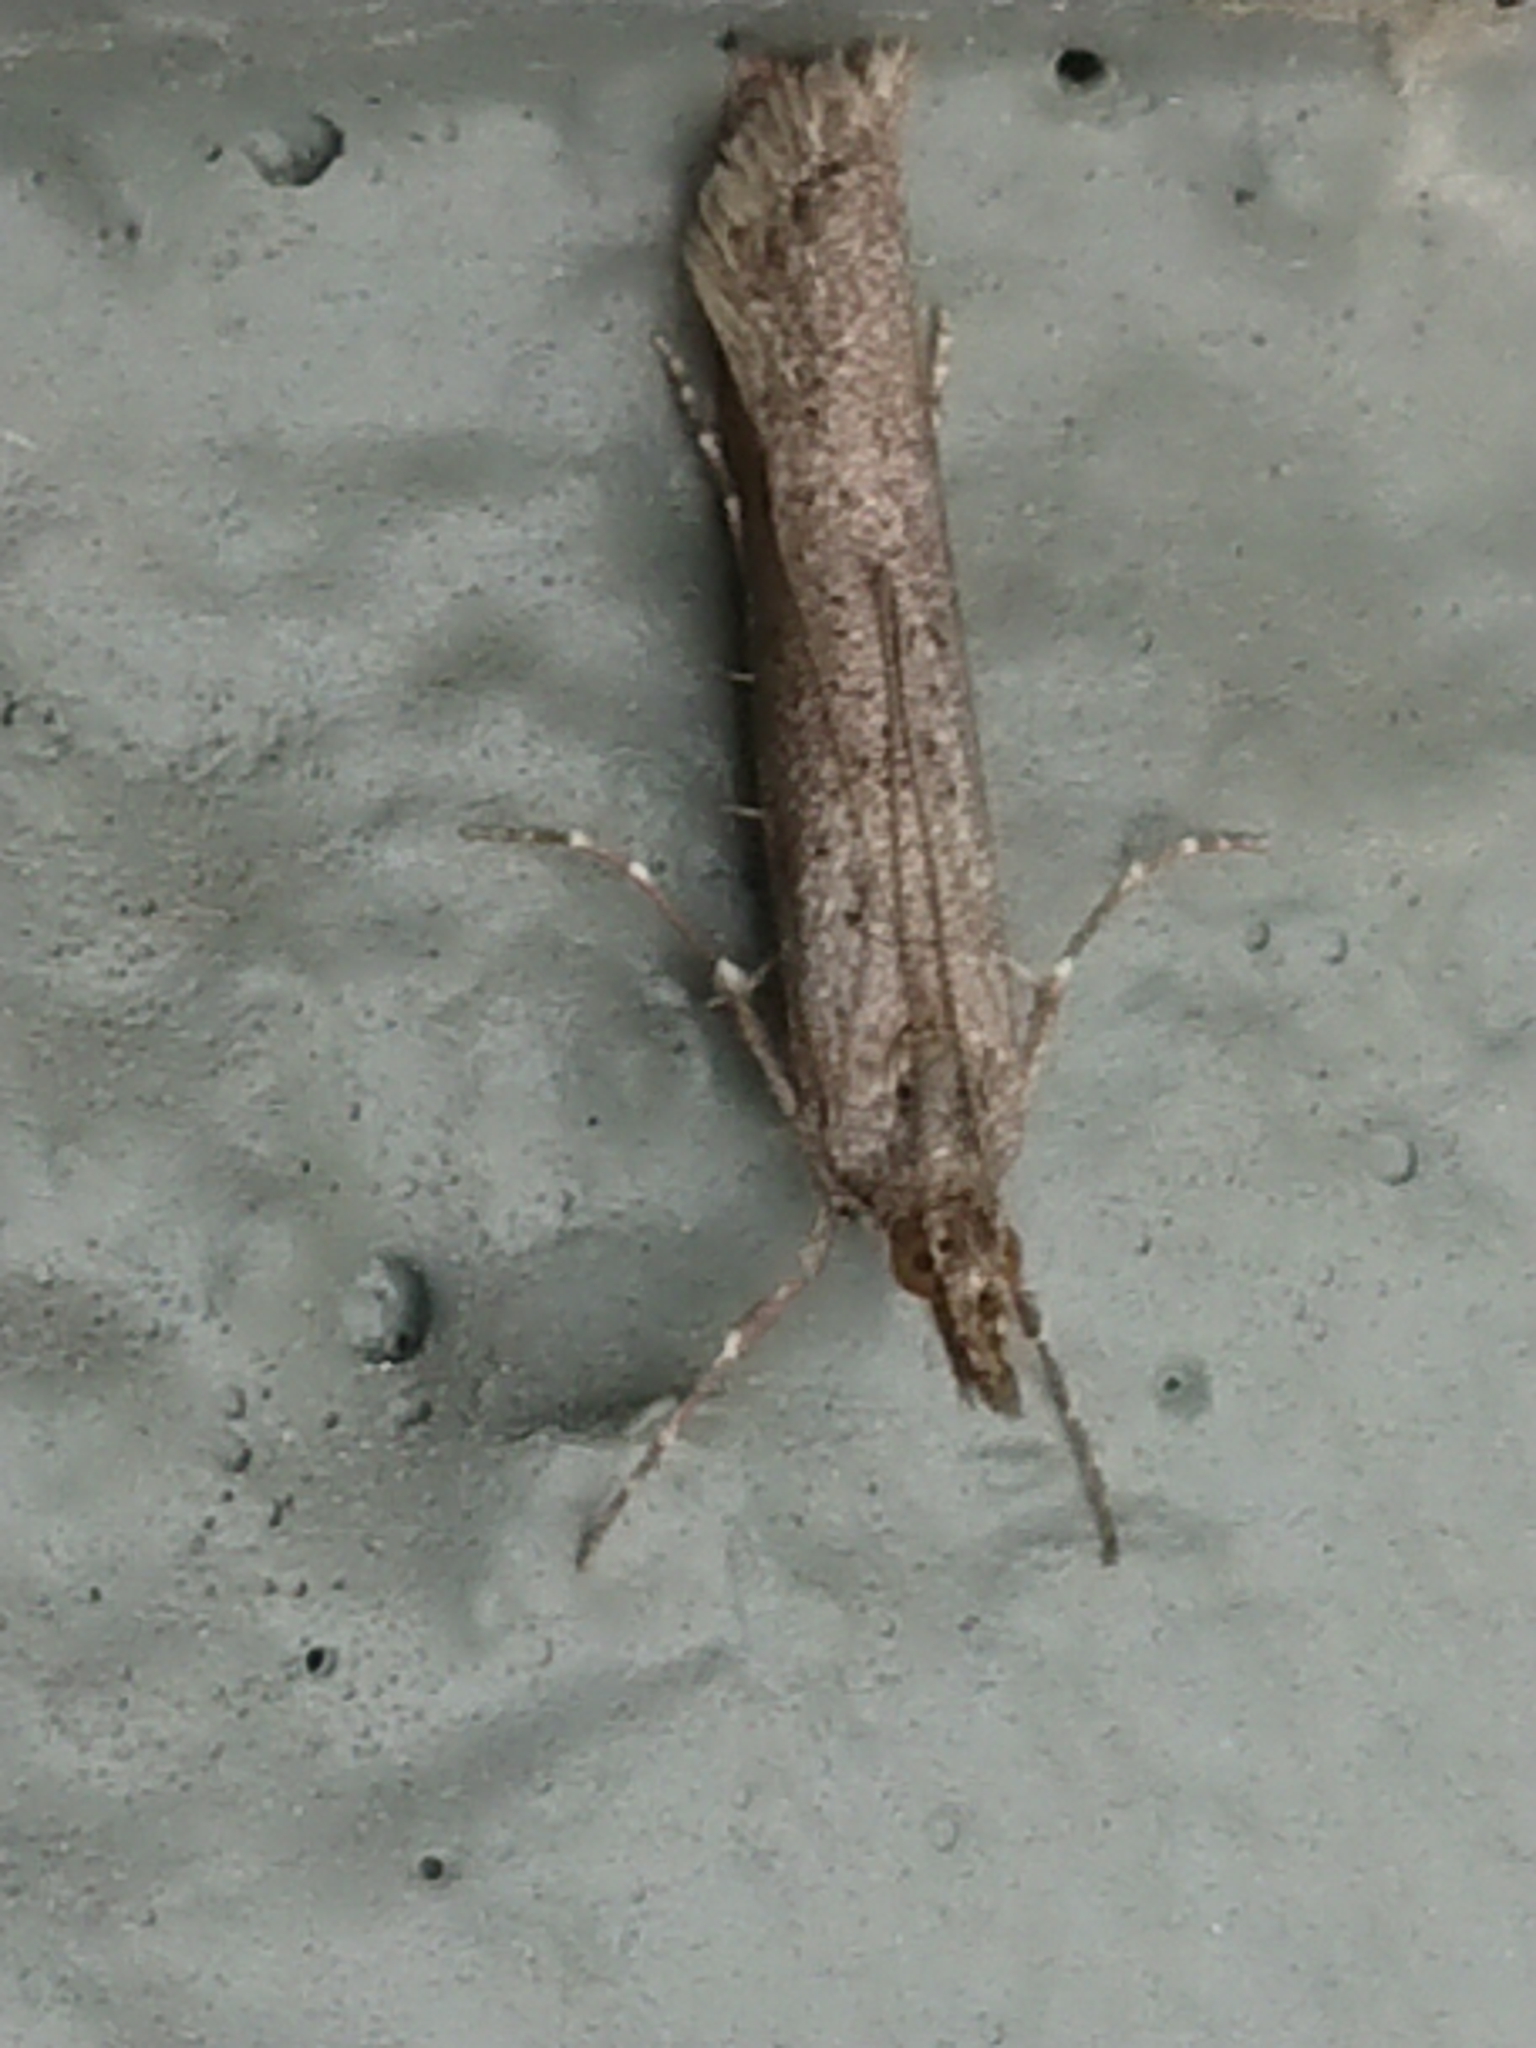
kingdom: Animalia
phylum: Arthropoda
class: Insecta
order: Lepidoptera
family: Crambidae
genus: Eudonia
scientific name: Eudonia leptalea
